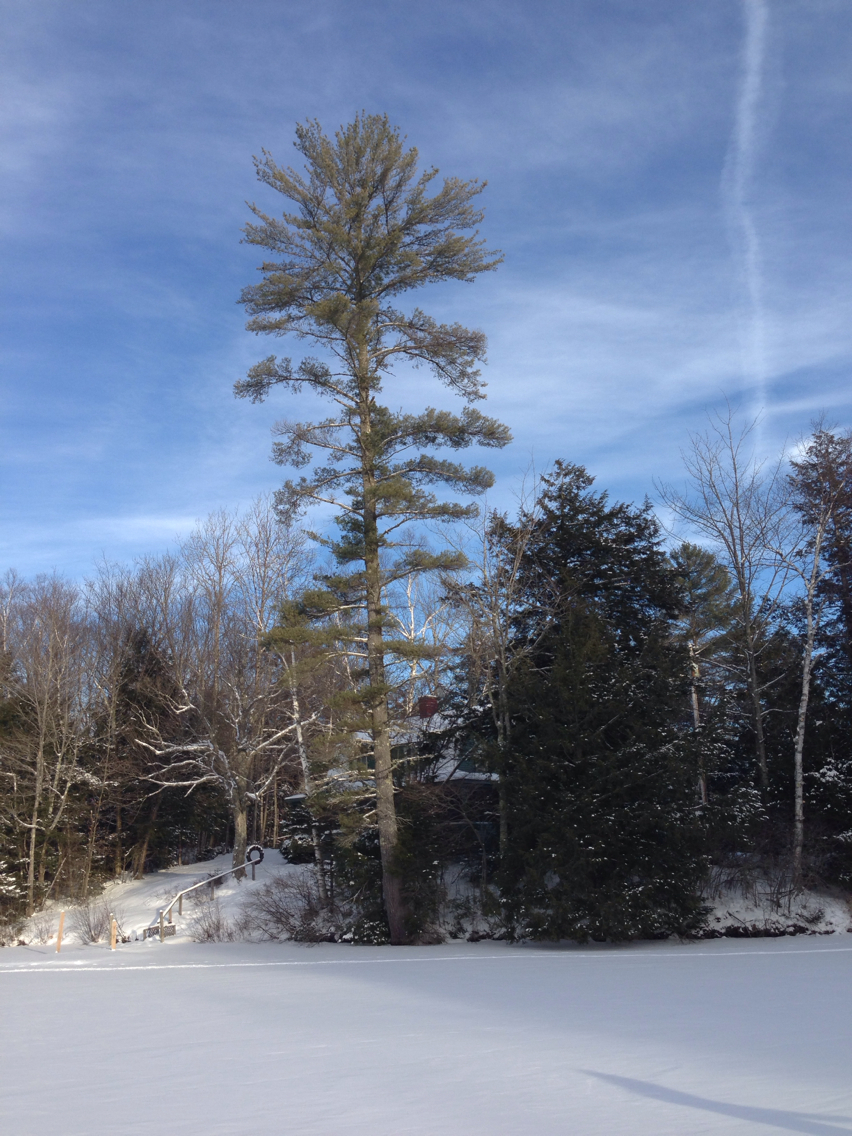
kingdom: Plantae
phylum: Tracheophyta
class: Pinopsida
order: Pinales
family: Pinaceae
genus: Pinus
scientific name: Pinus strobus
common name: Weymouth pine
